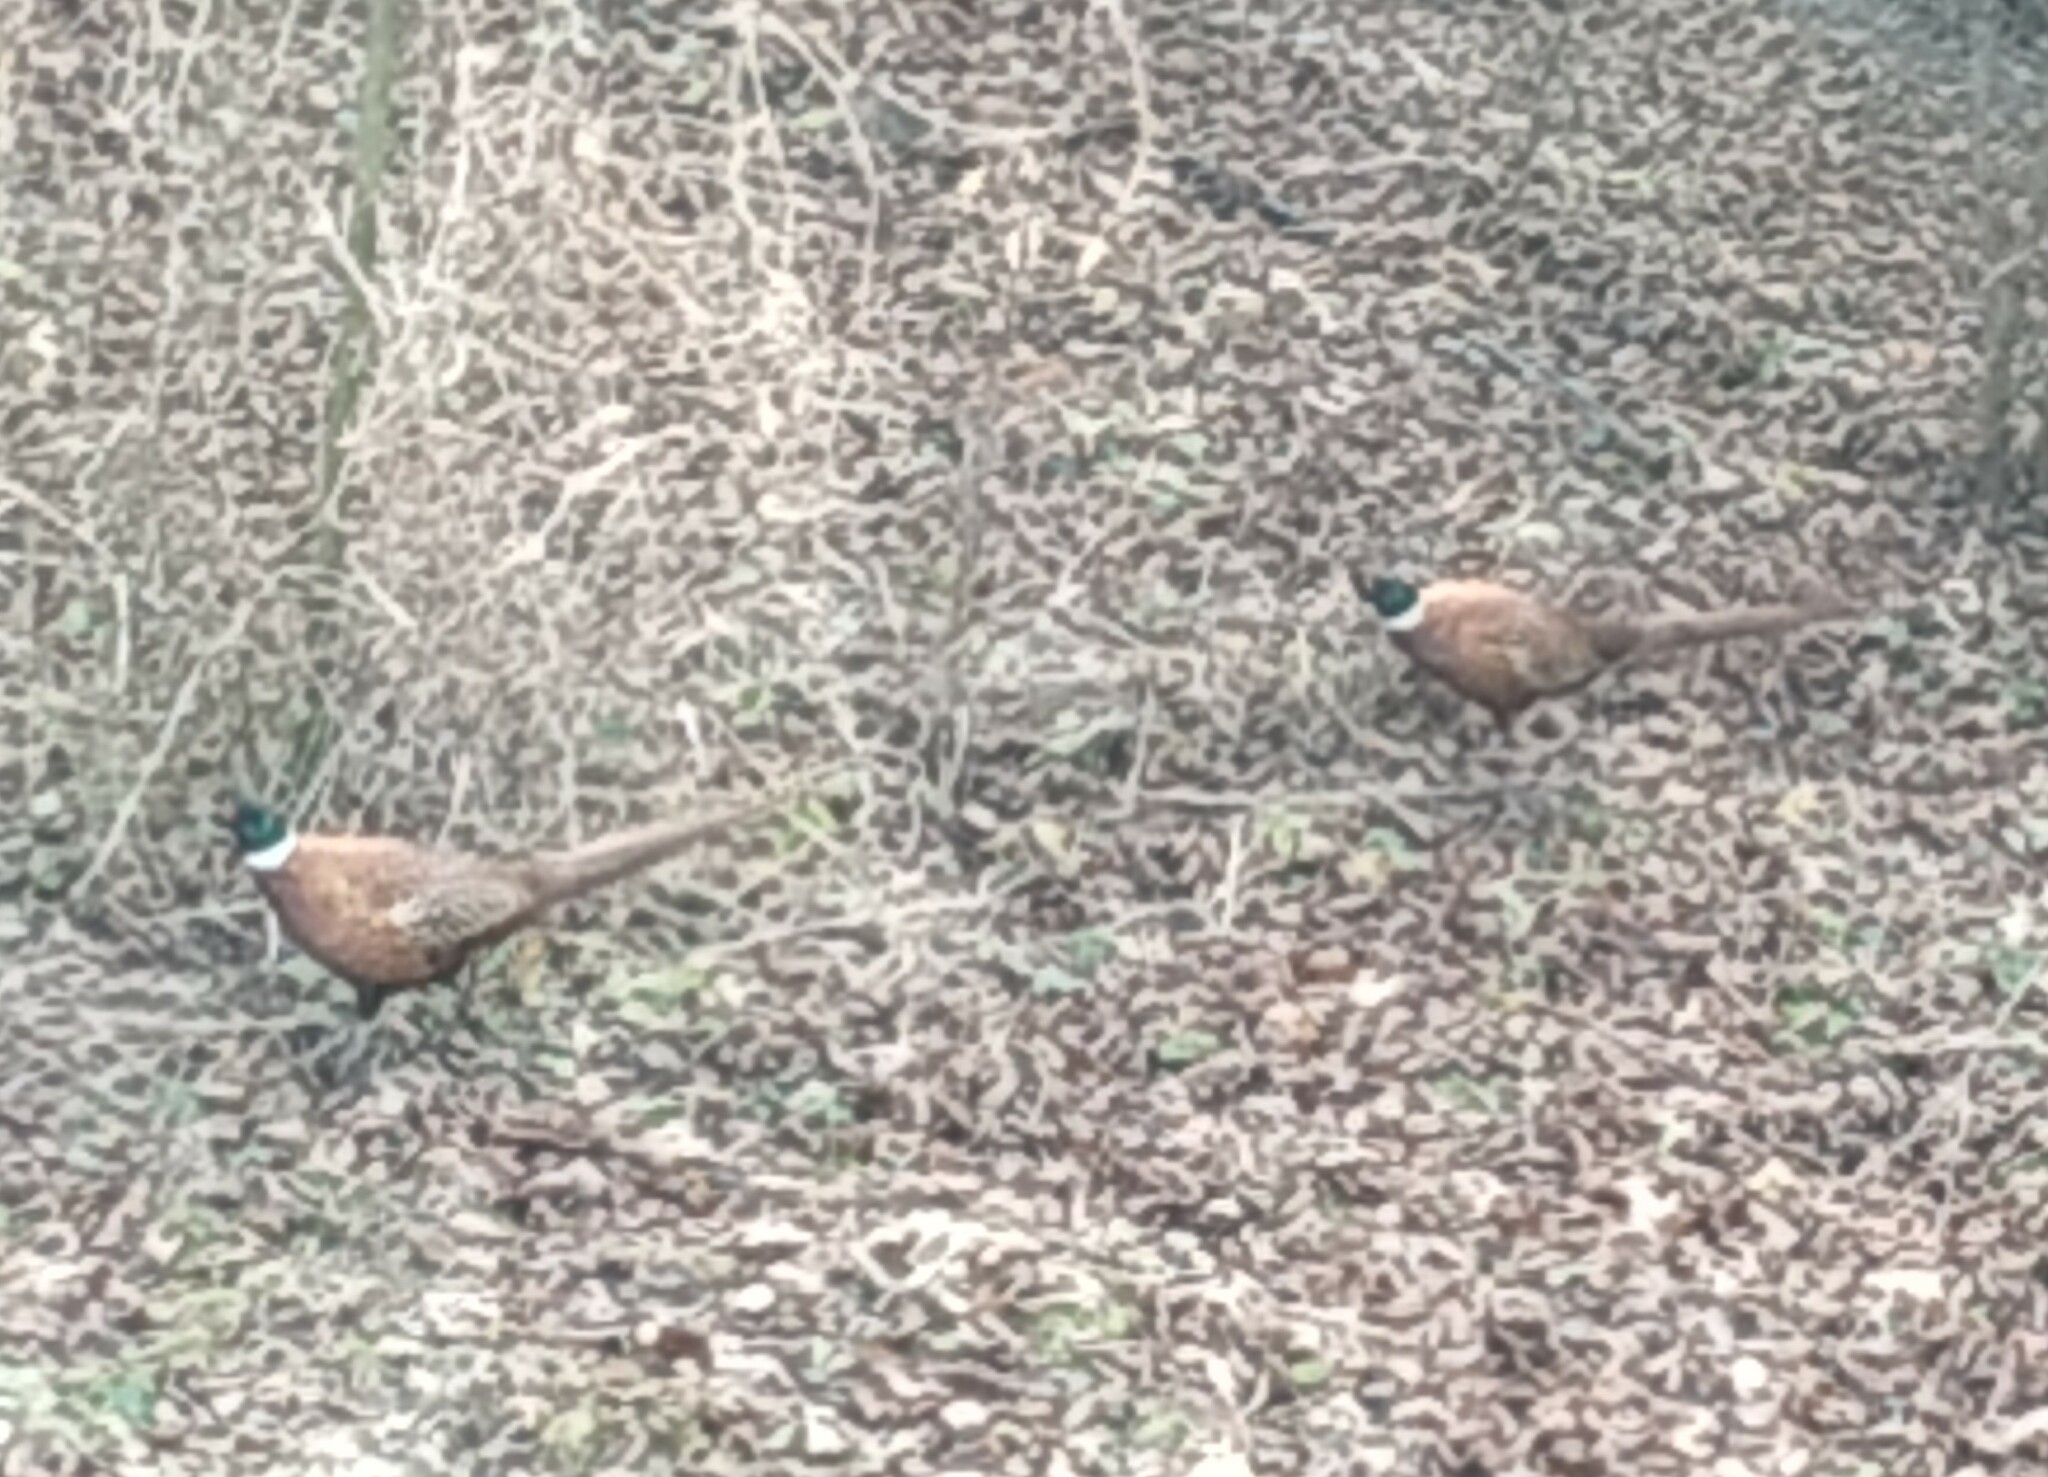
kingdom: Animalia
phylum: Chordata
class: Aves
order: Galliformes
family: Phasianidae
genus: Phasianus
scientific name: Phasianus colchicus
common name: Common pheasant
